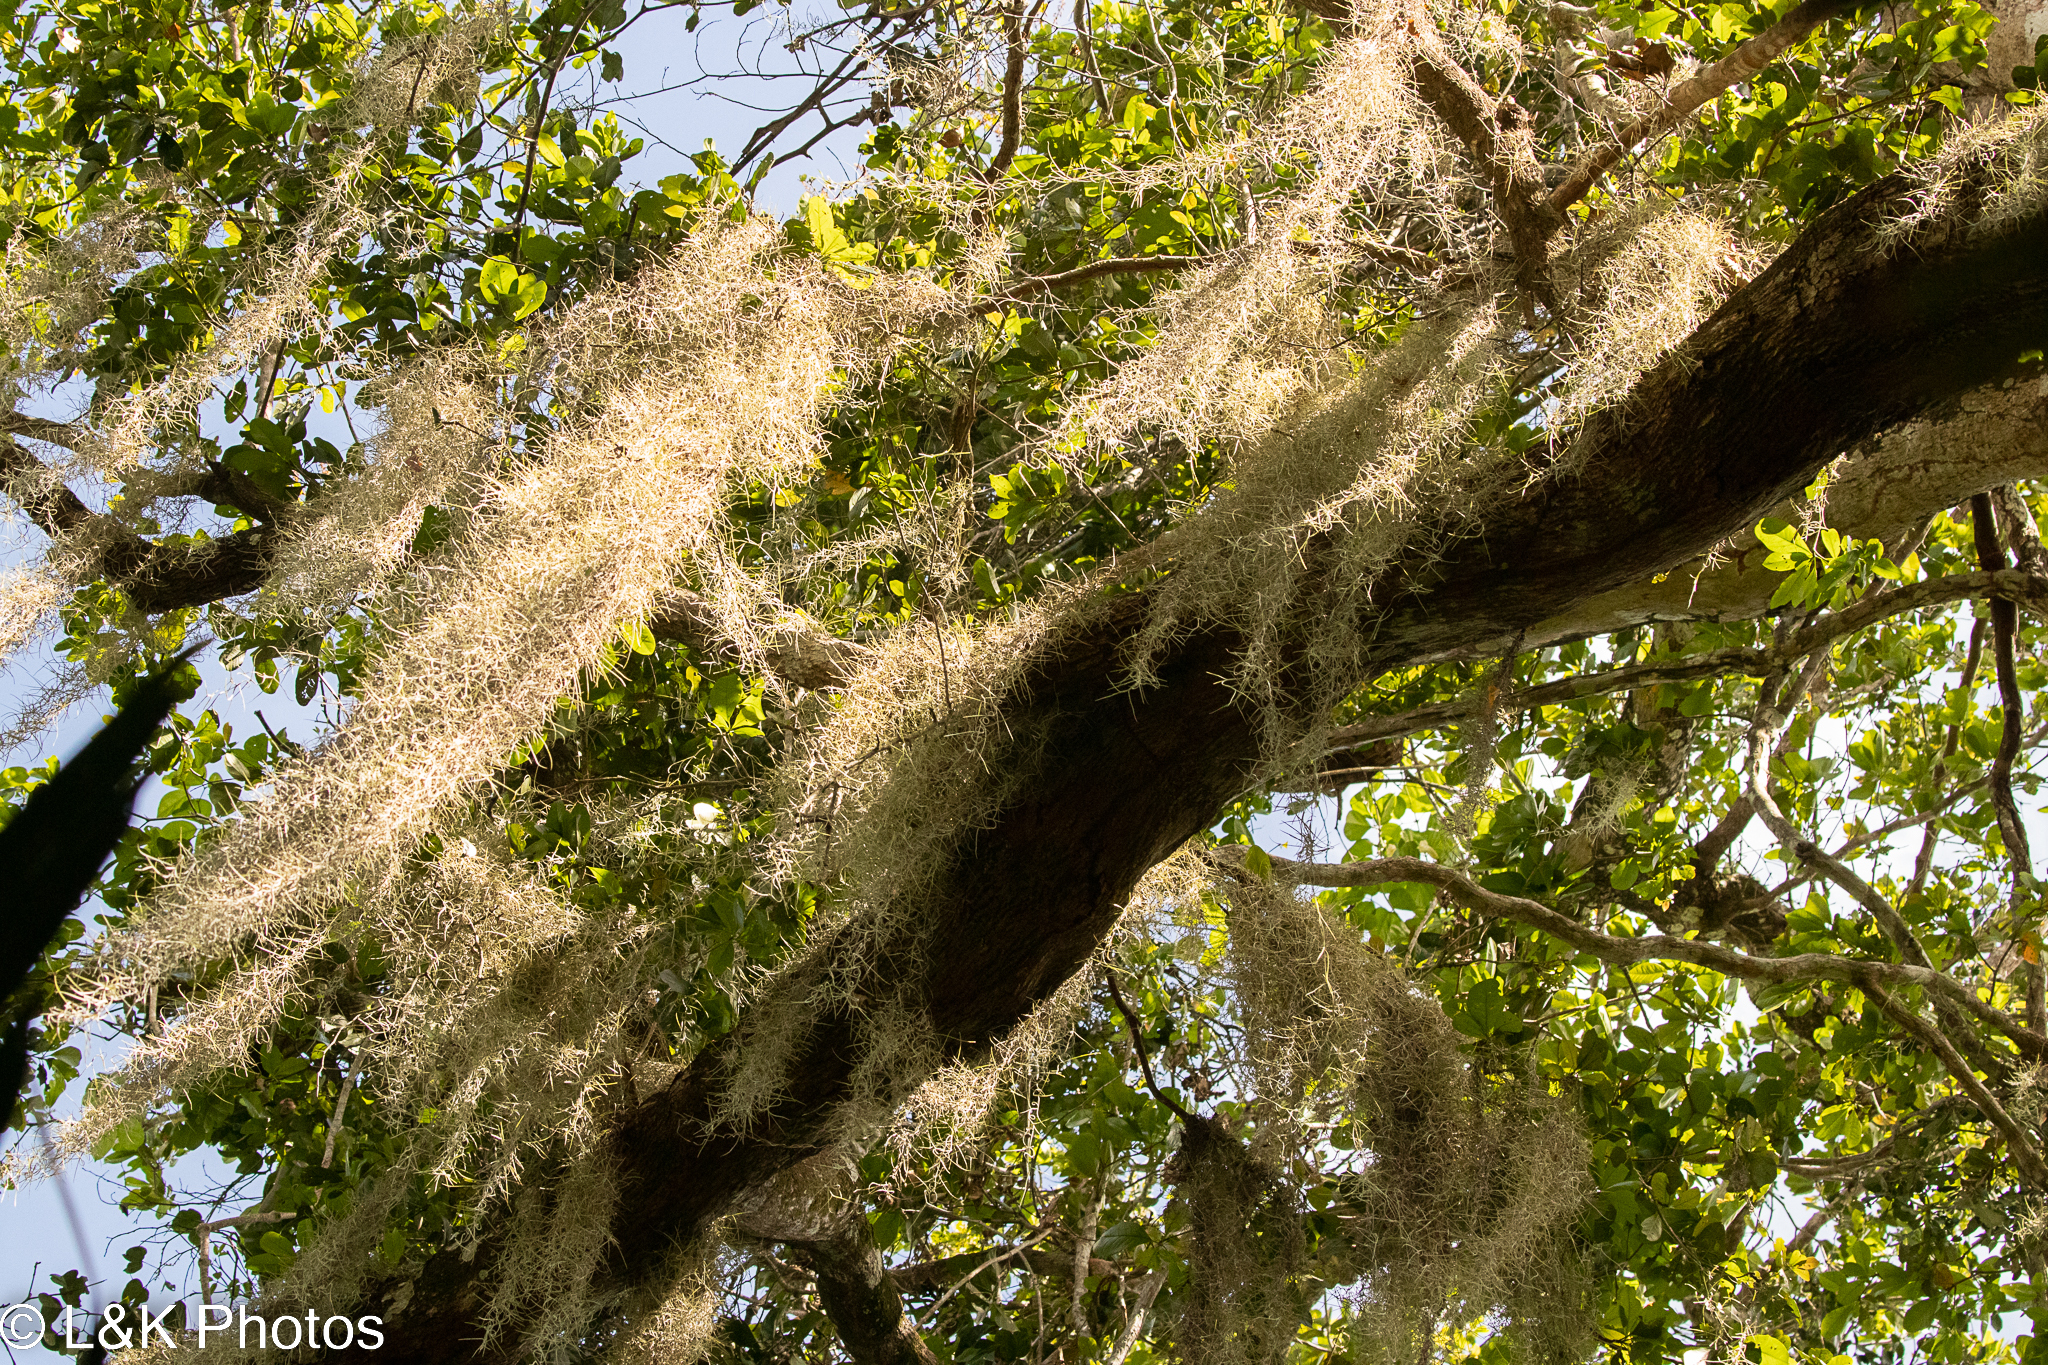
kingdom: Plantae
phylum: Tracheophyta
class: Liliopsida
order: Poales
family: Bromeliaceae
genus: Tillandsia
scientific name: Tillandsia usneoides
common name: Spanish moss
